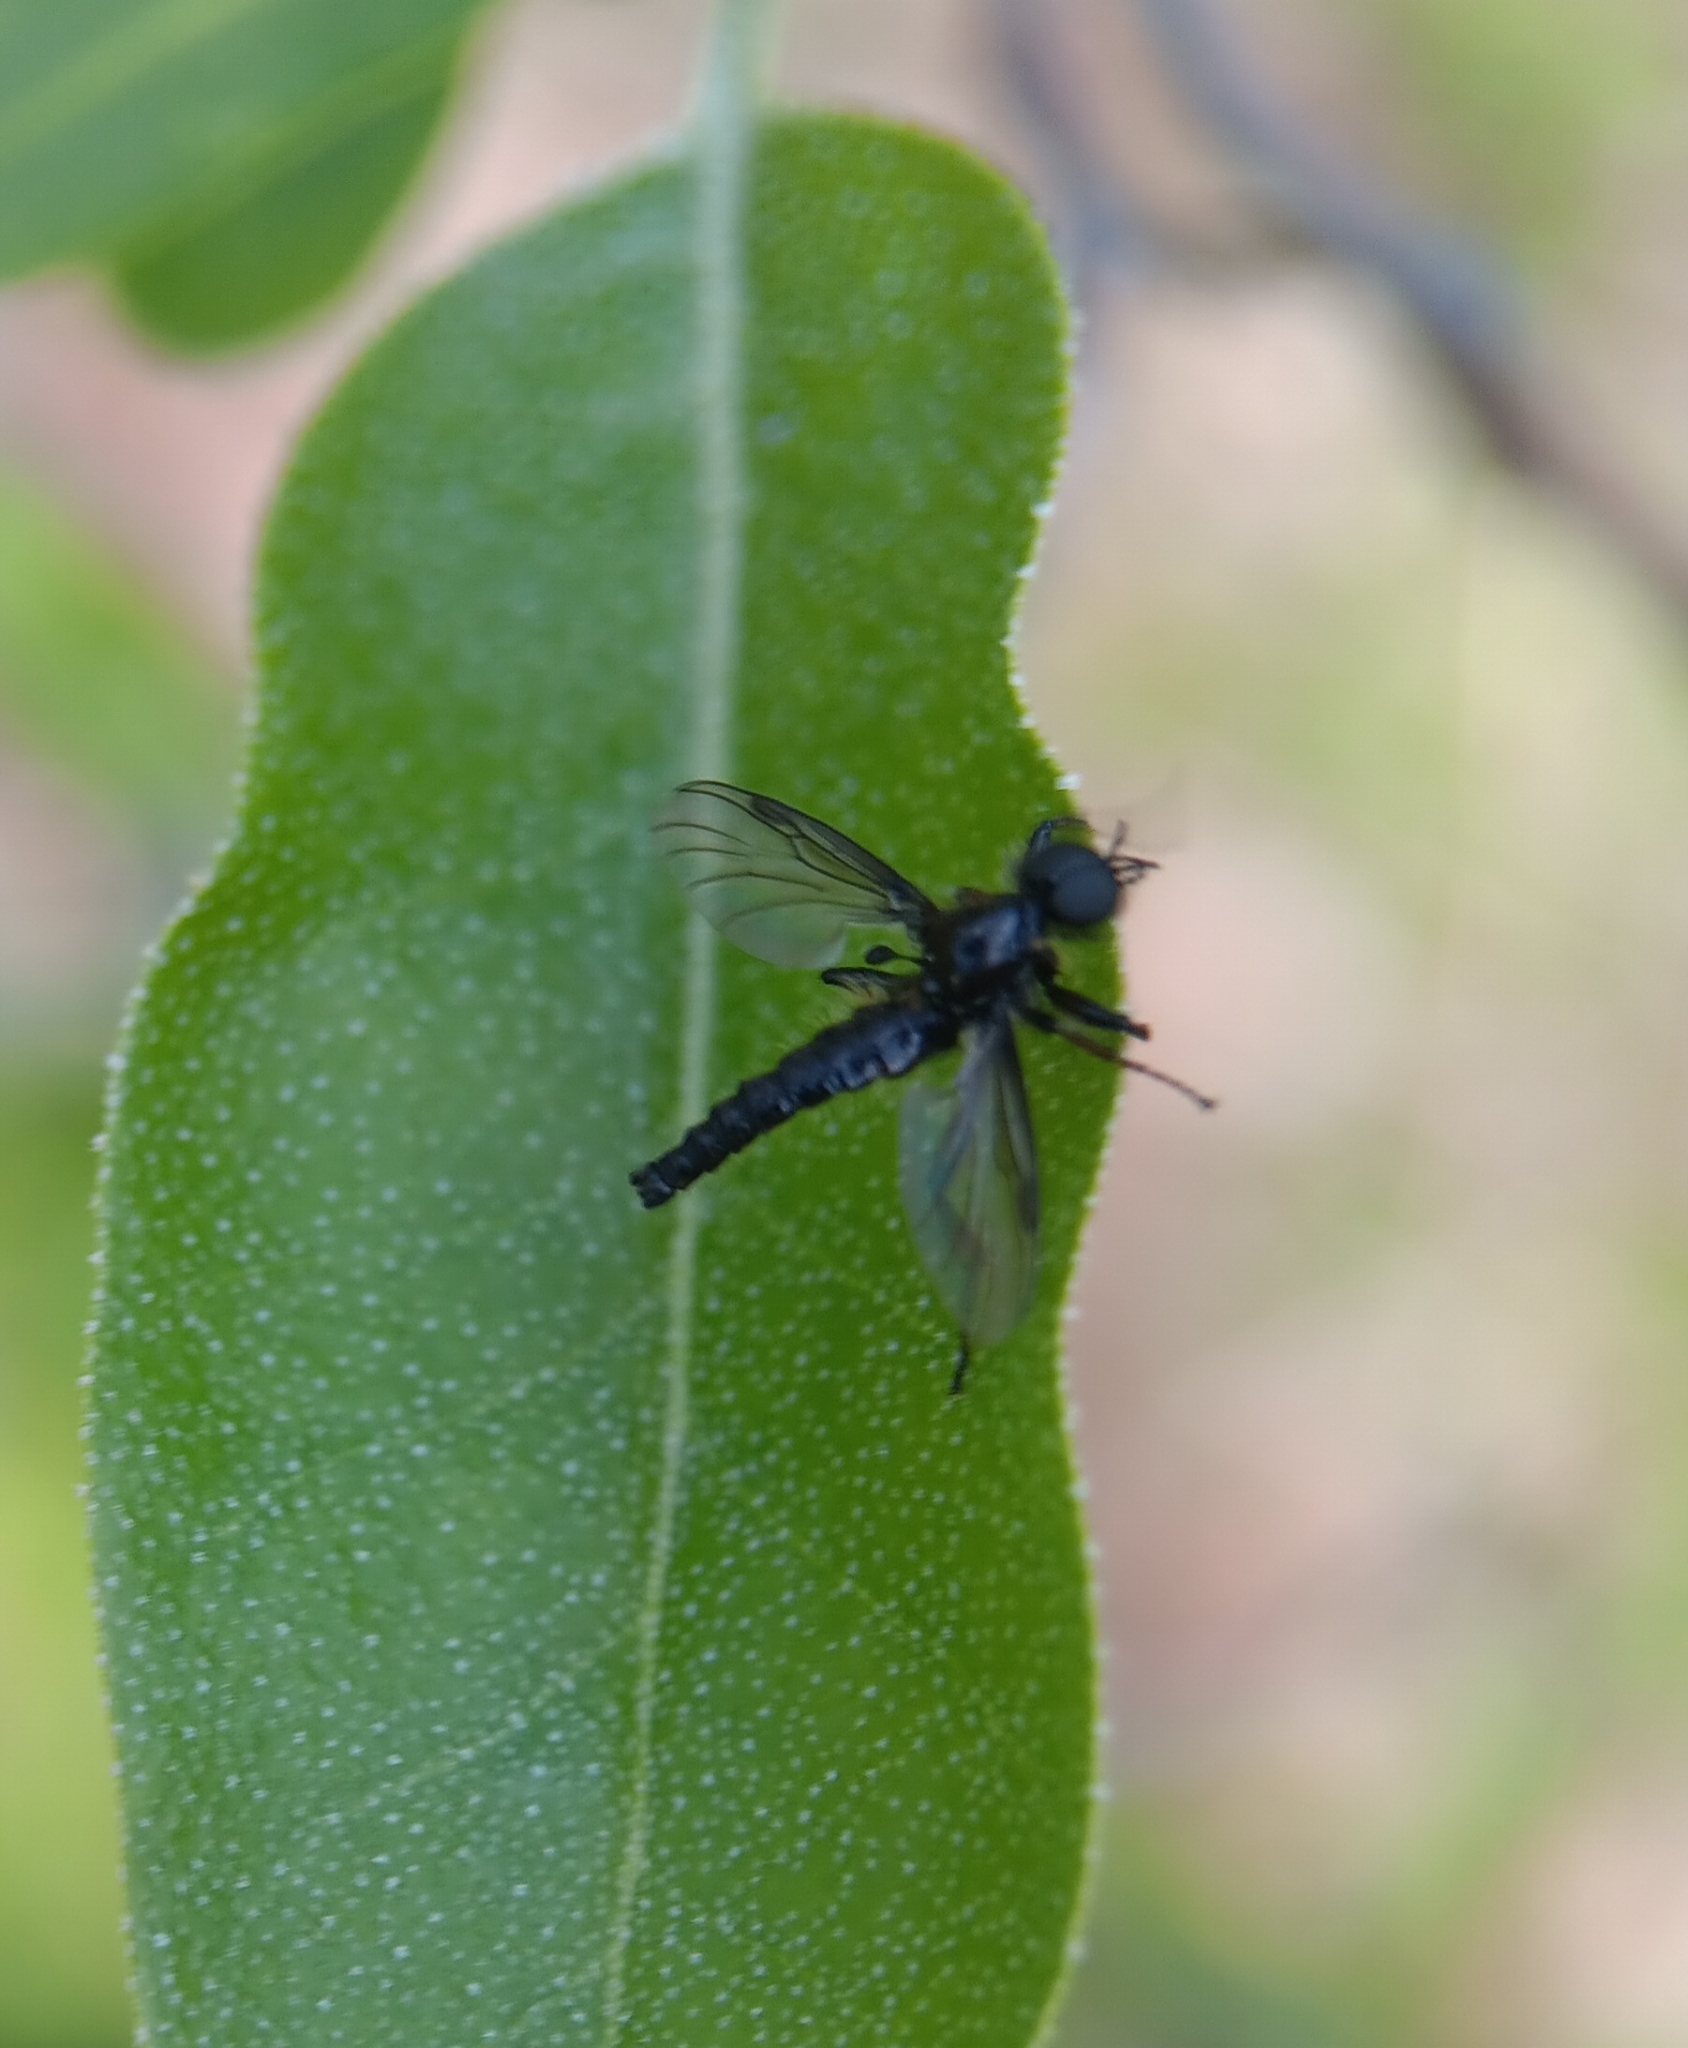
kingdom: Animalia
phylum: Arthropoda
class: Insecta
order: Diptera
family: Bibionidae
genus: Bibio
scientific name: Bibio lanigerus
